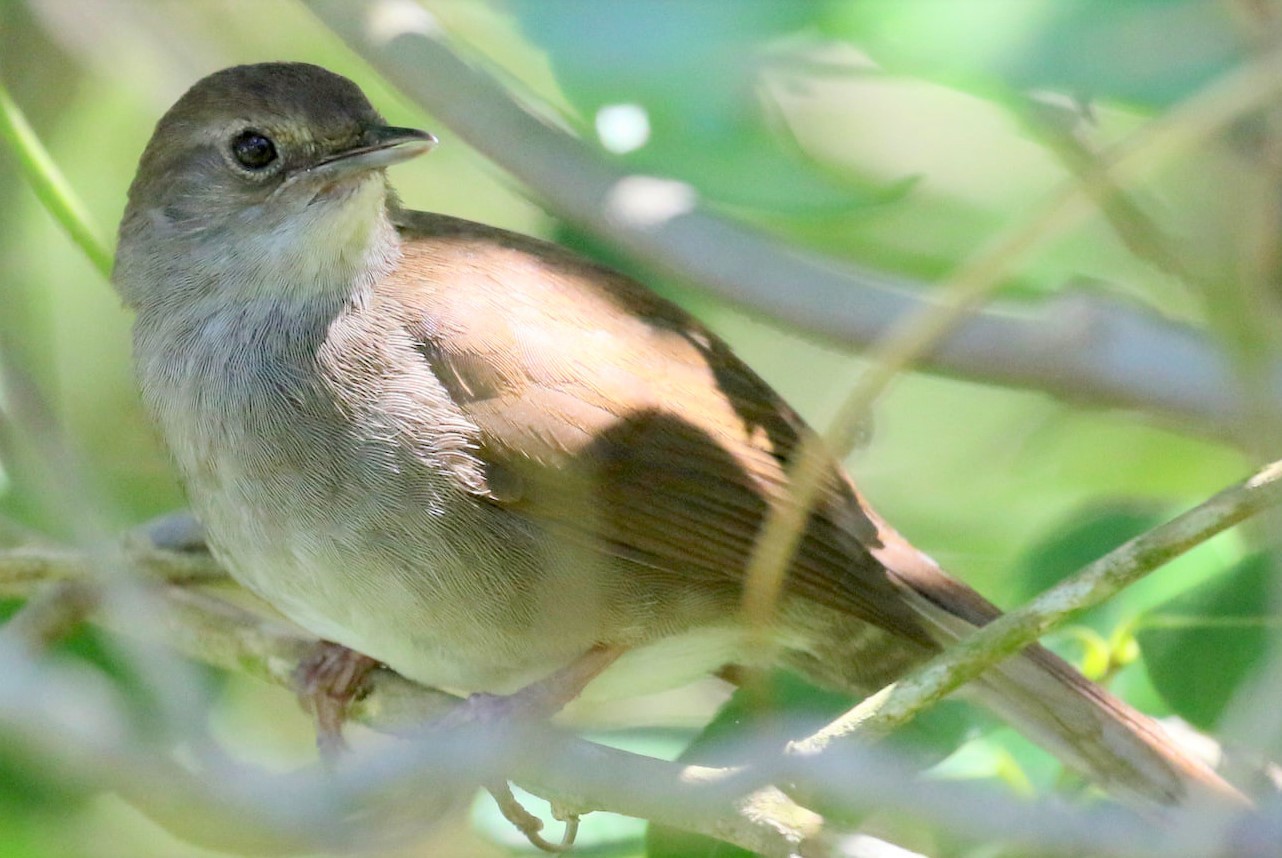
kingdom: Animalia
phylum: Chordata
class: Aves
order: Passeriformes
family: Locustellidae
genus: Bradypterus
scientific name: Bradypterus sylvaticus
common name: Knysna warbler
